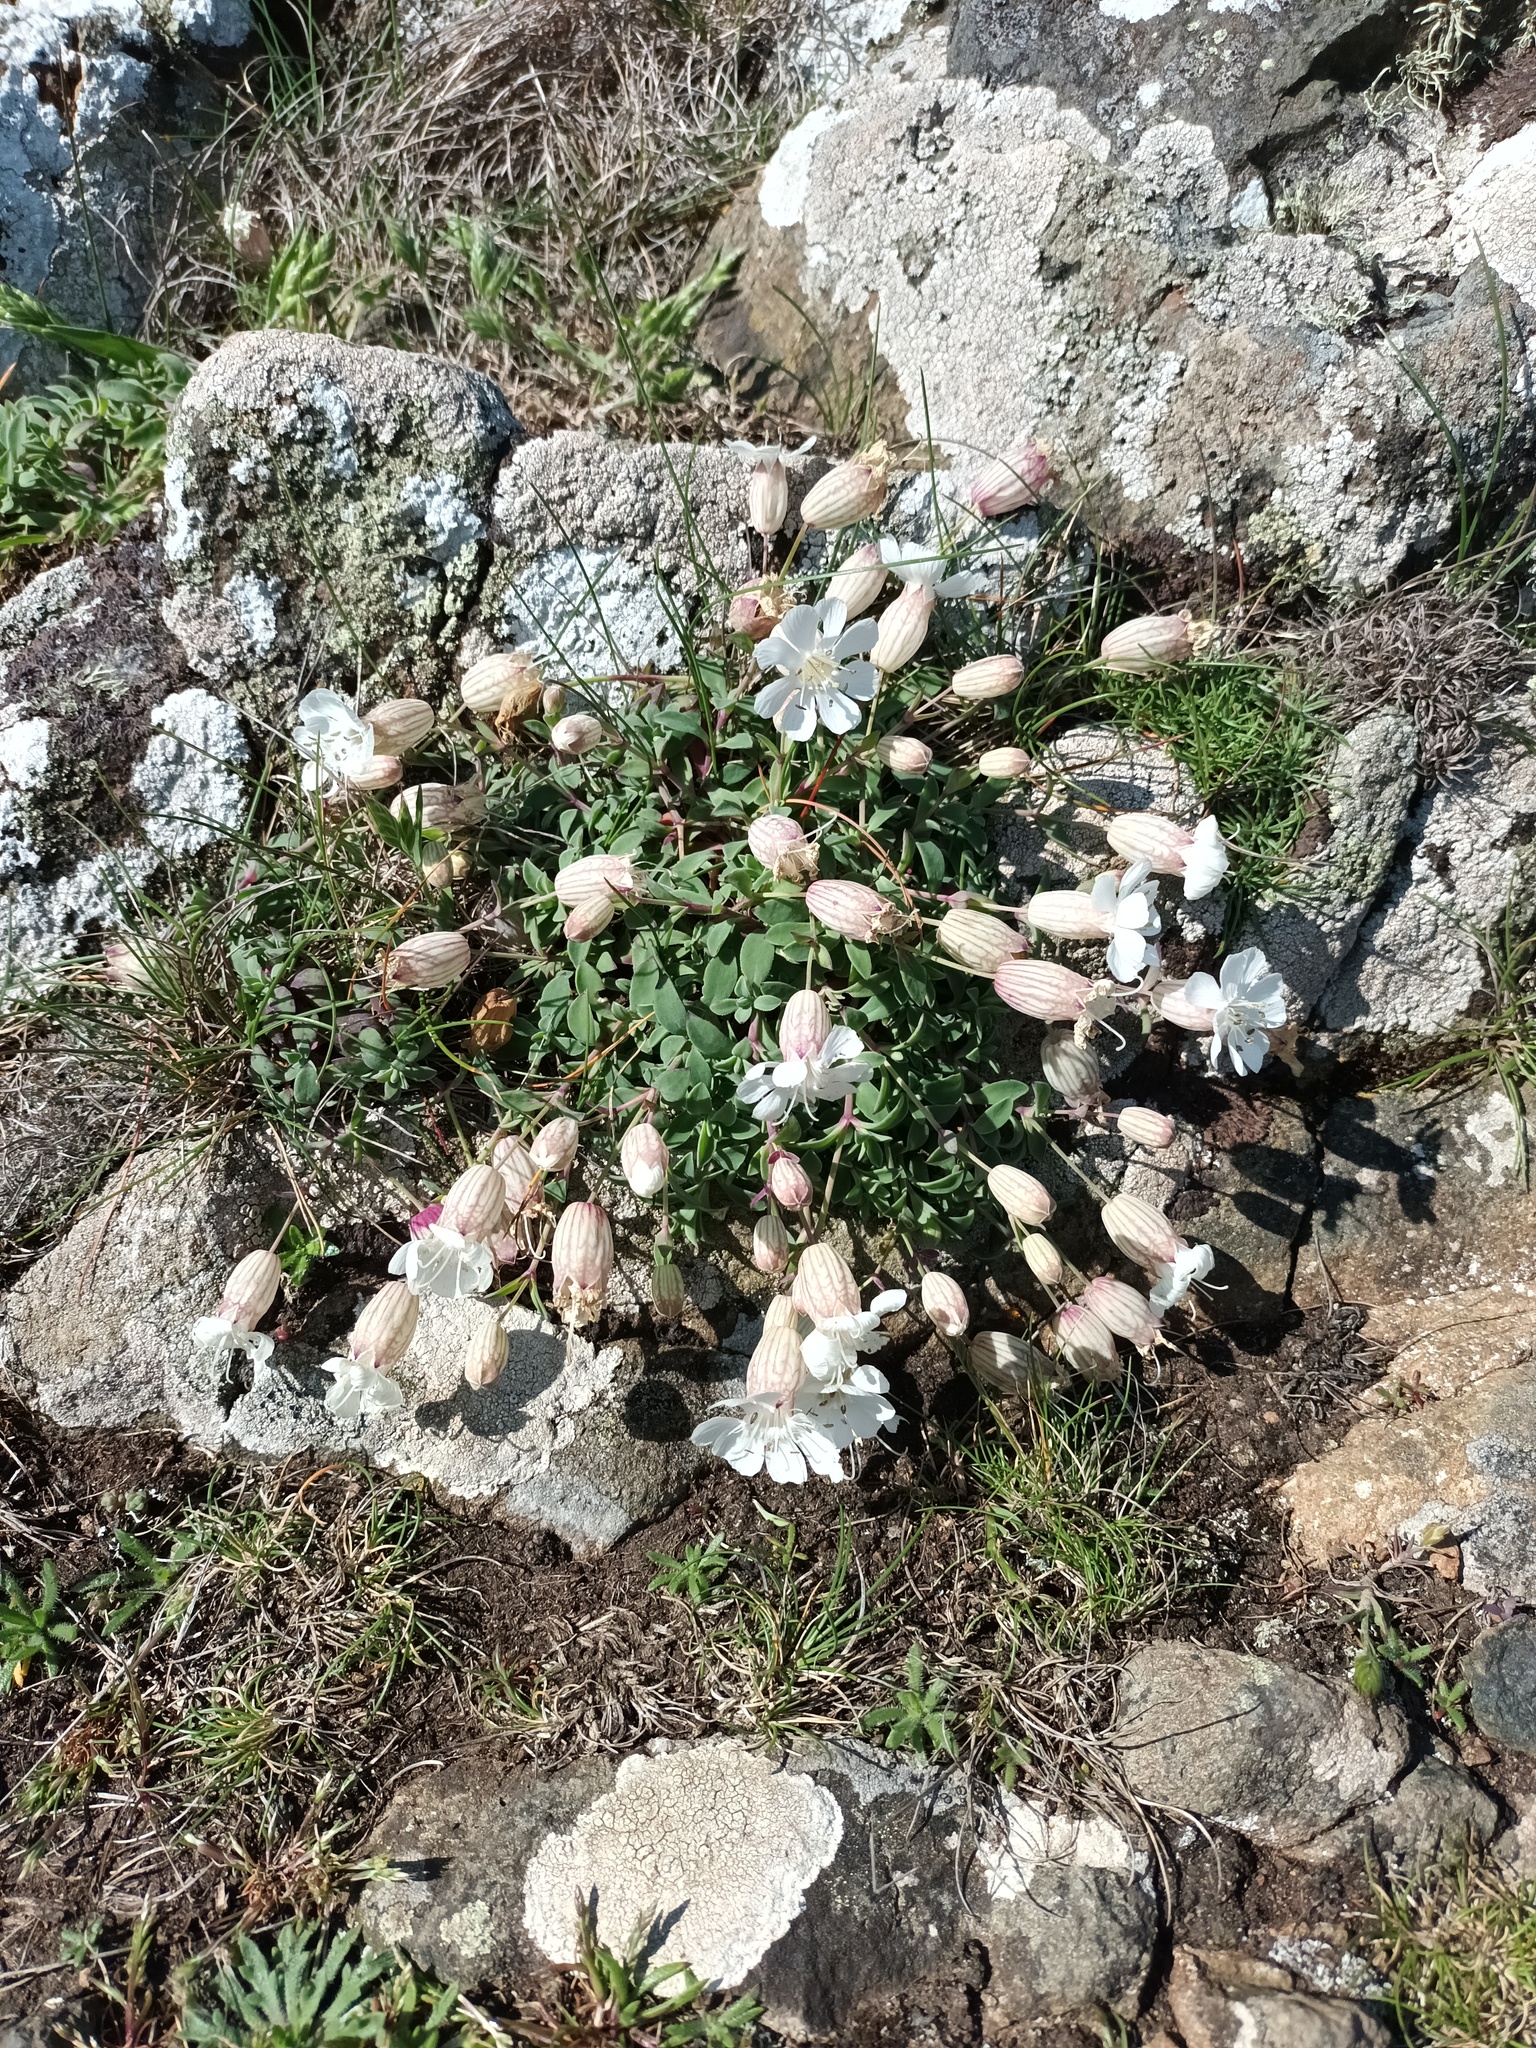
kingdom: Plantae
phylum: Tracheophyta
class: Magnoliopsida
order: Caryophyllales
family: Caryophyllaceae
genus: Silene
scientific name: Silene uniflora
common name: Sea campion
